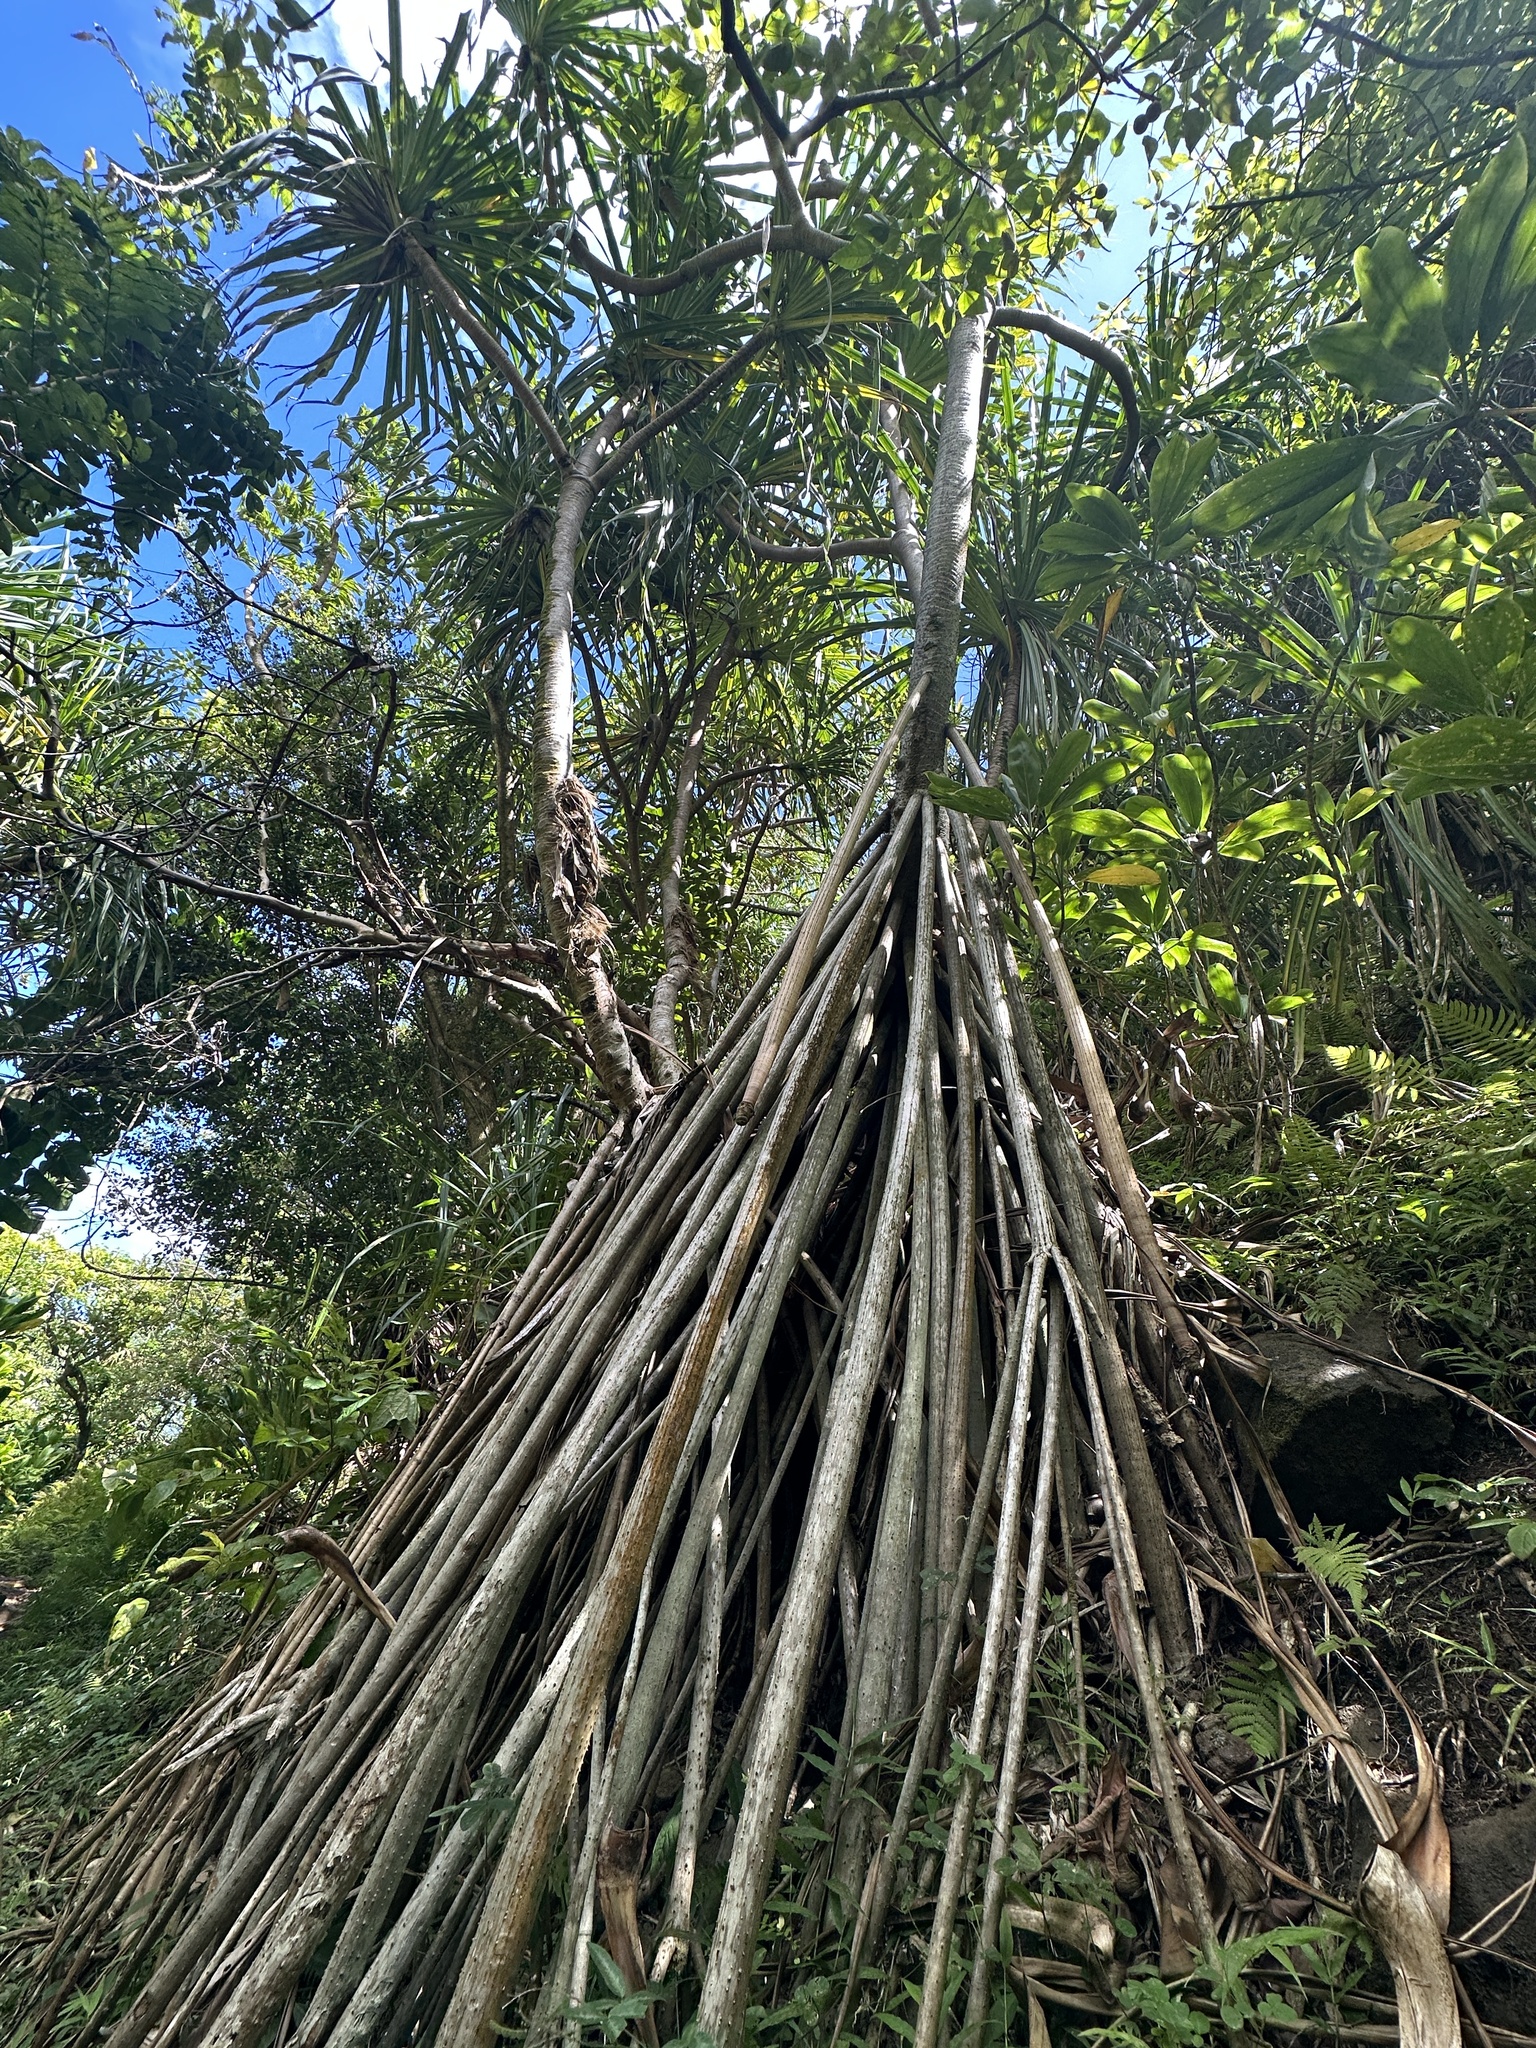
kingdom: Plantae
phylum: Tracheophyta
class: Liliopsida
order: Pandanales
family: Pandanaceae
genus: Pandanus
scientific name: Pandanus tectorius
